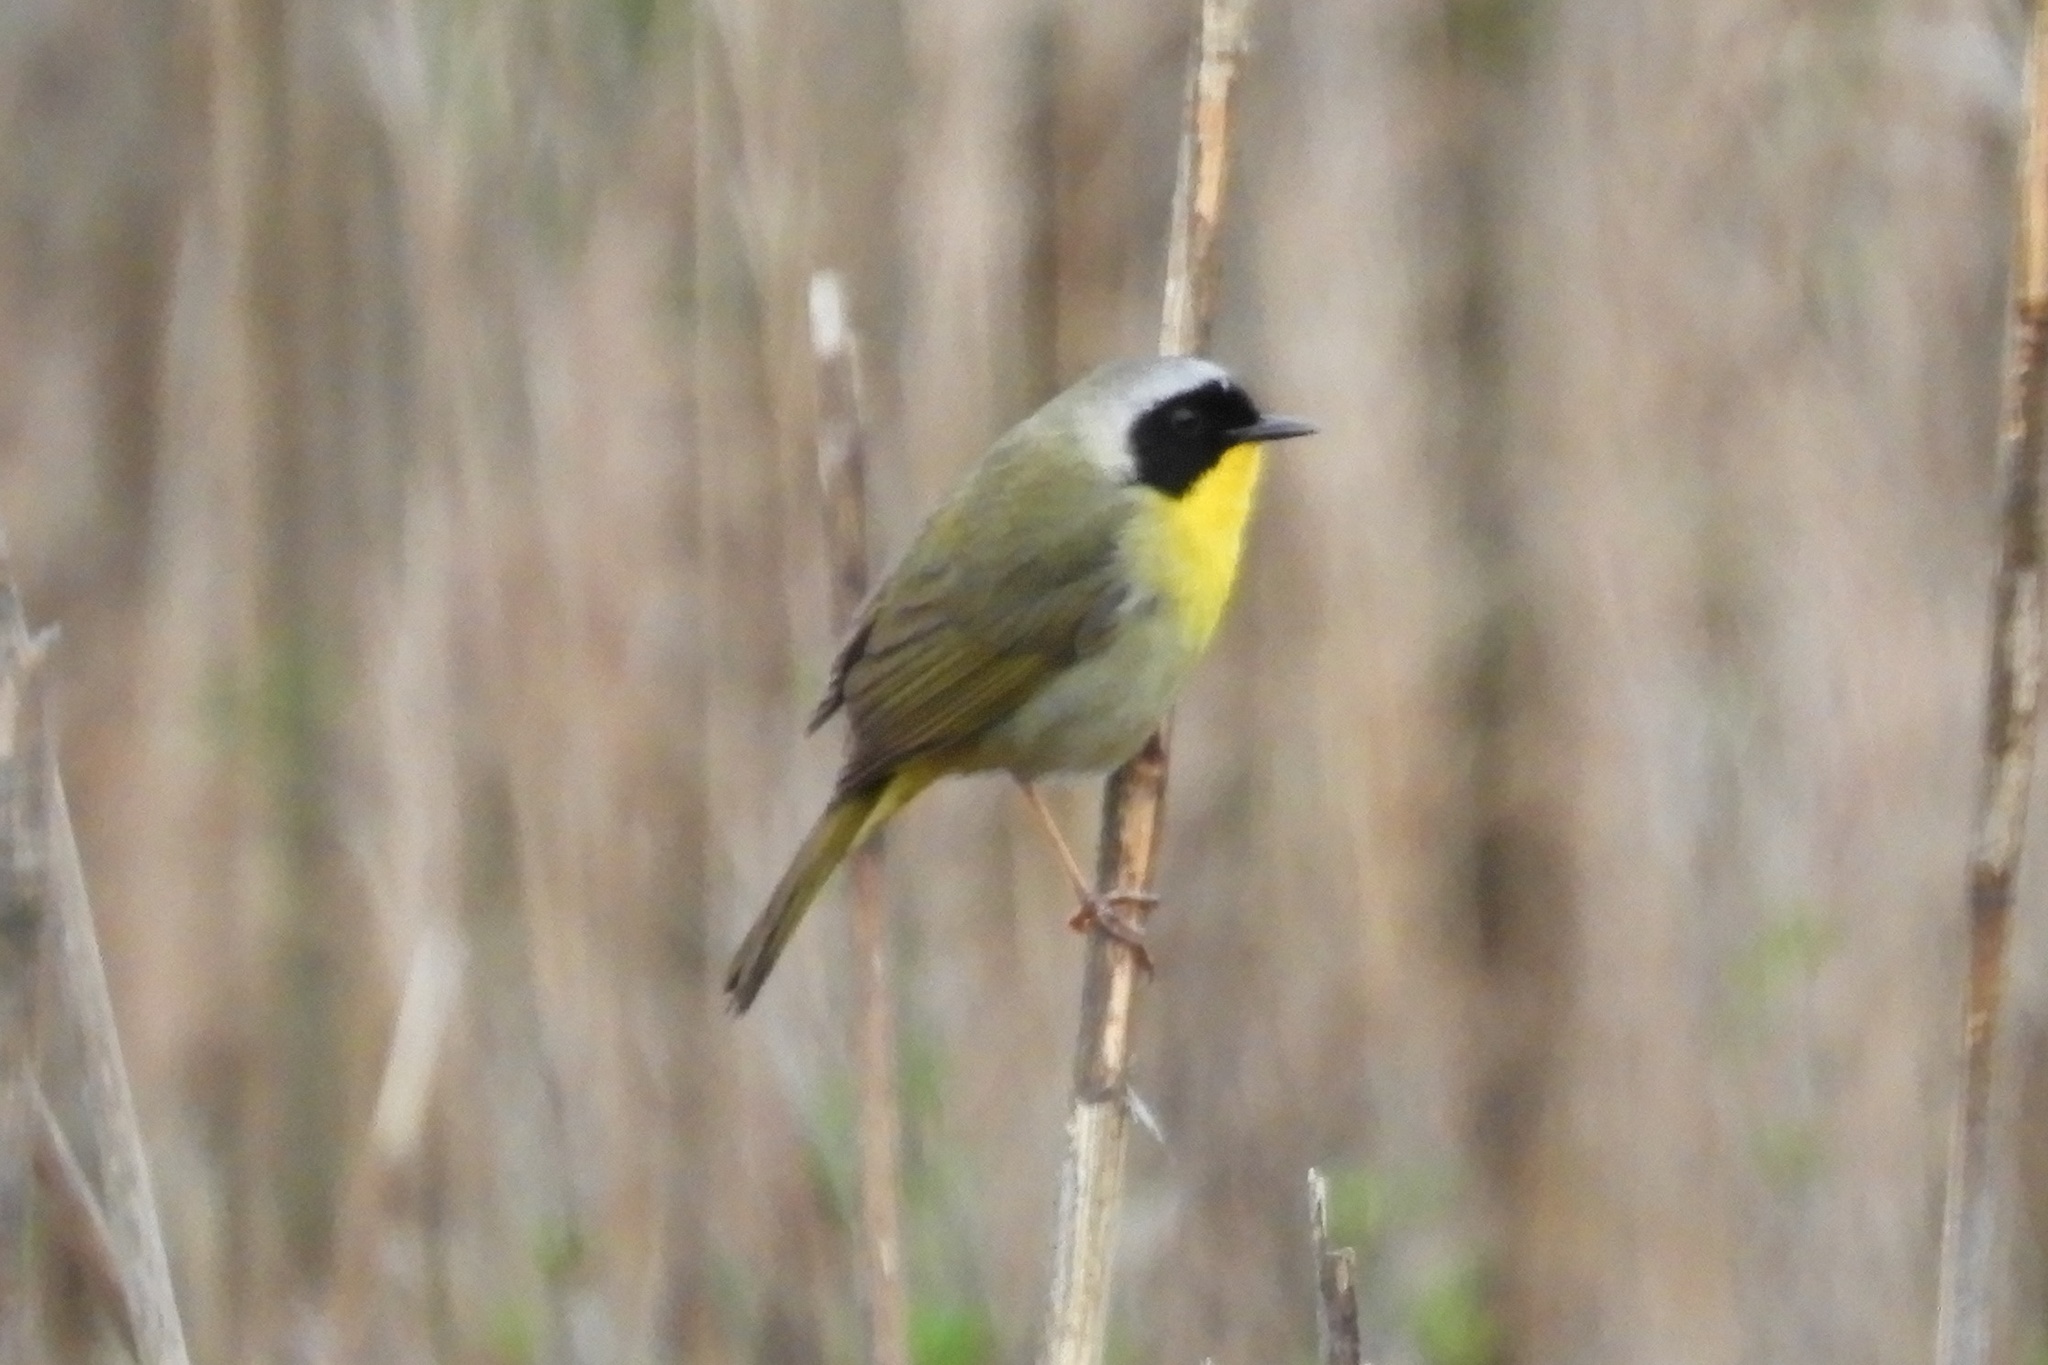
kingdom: Animalia
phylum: Chordata
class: Aves
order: Passeriformes
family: Parulidae
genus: Geothlypis
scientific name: Geothlypis trichas
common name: Common yellowthroat
